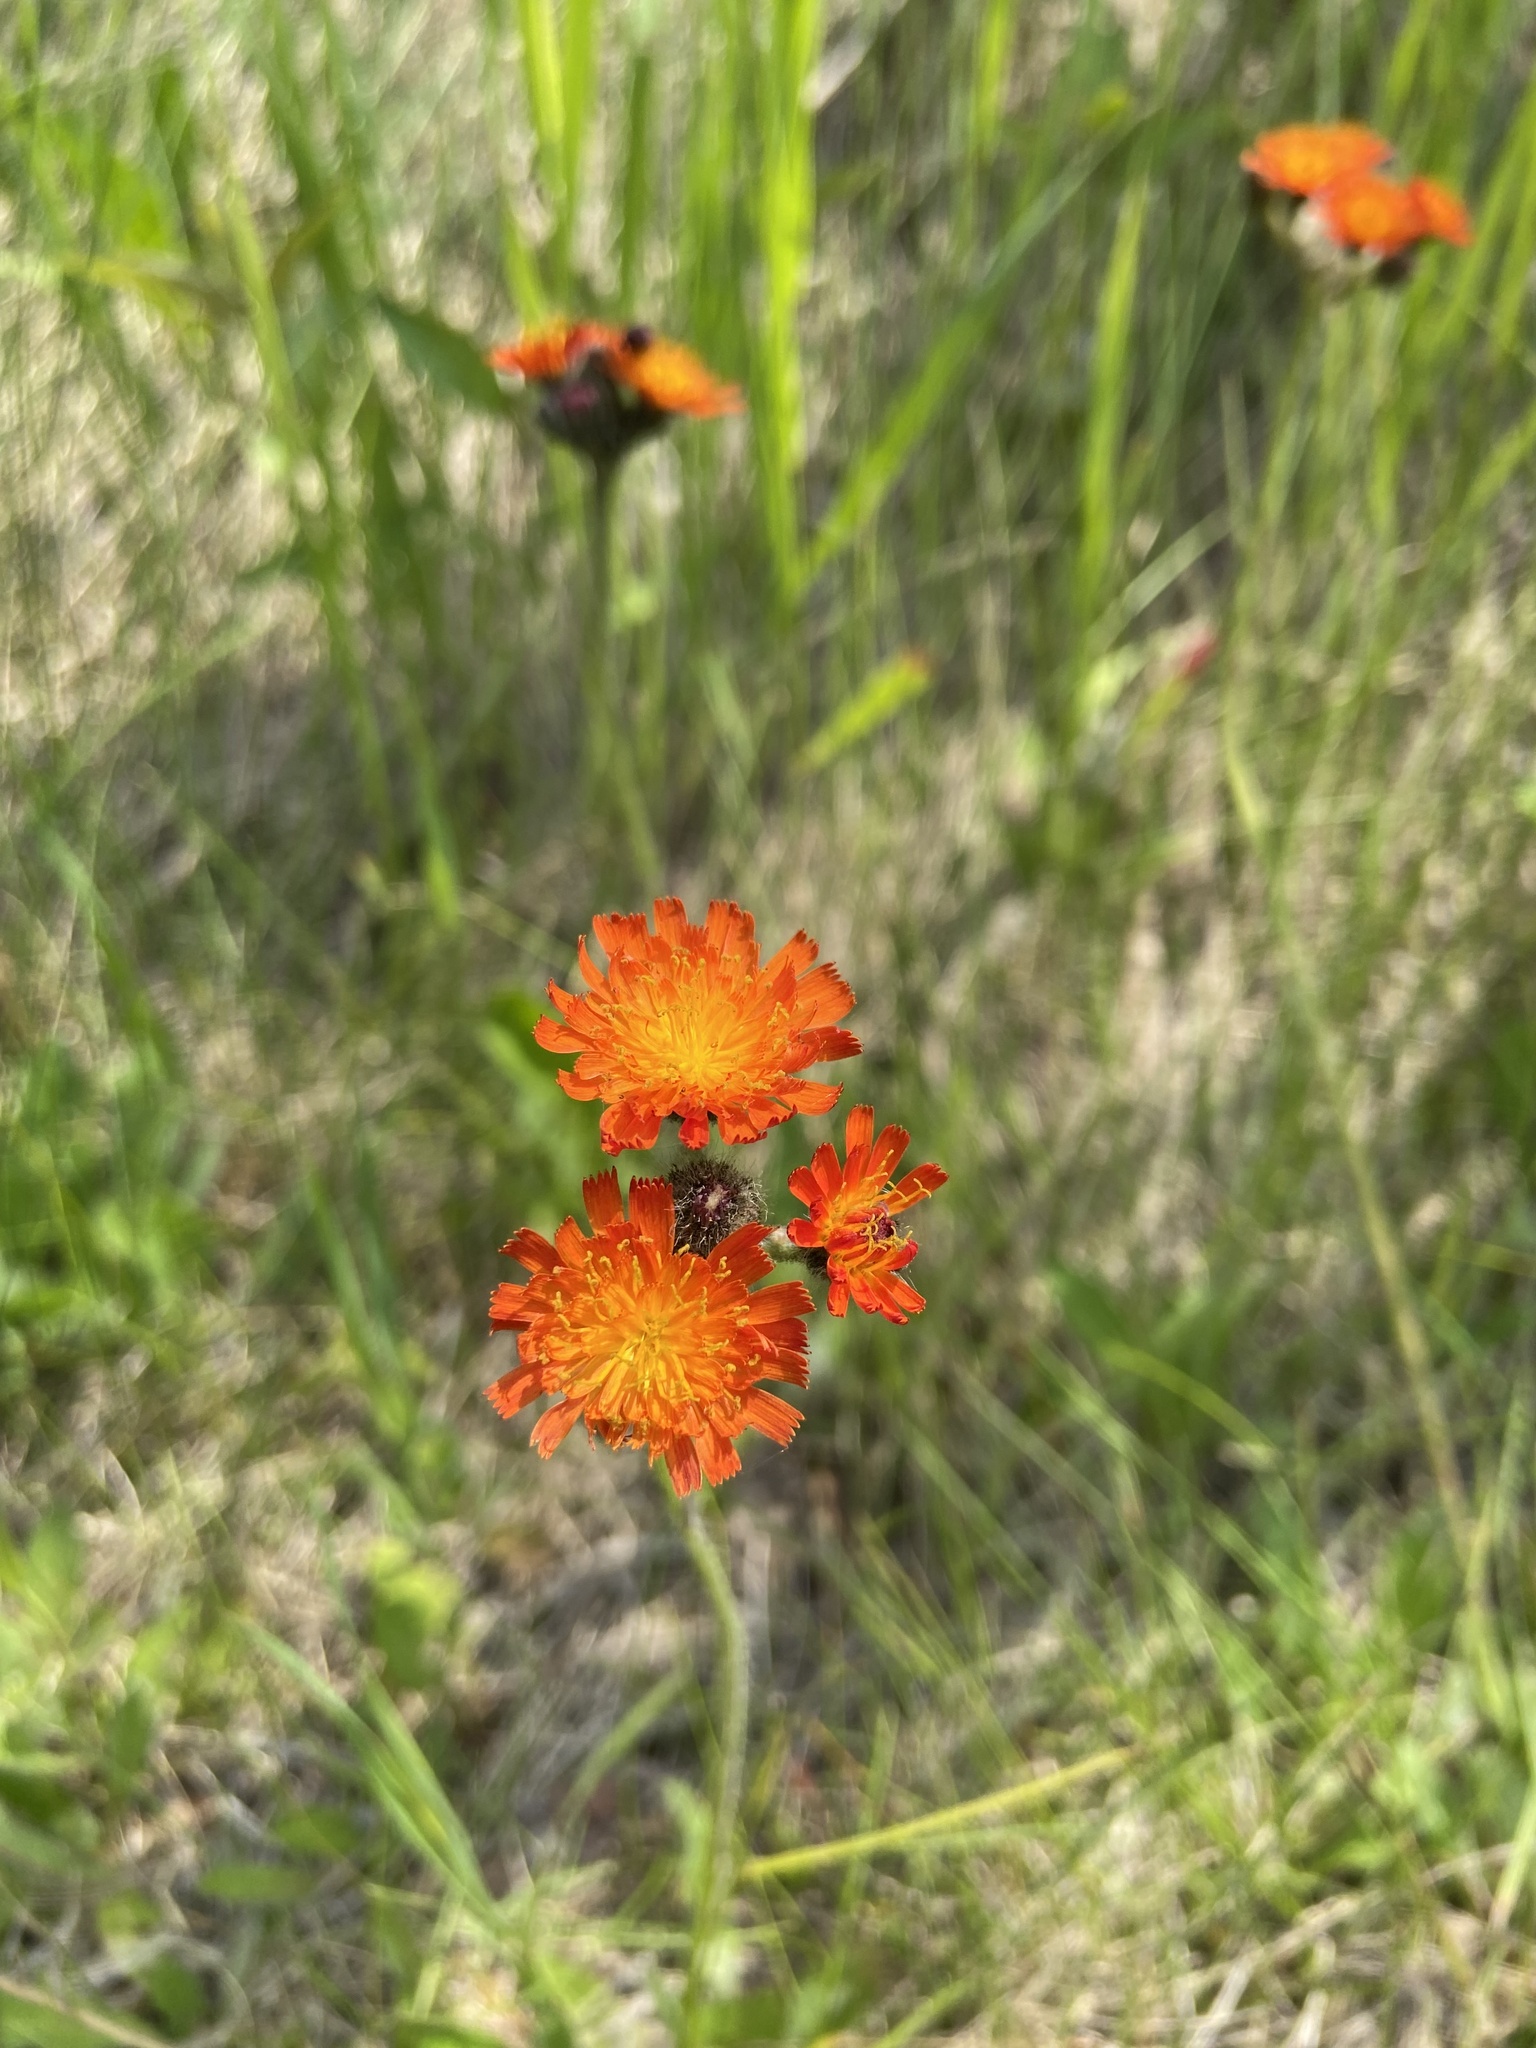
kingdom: Plantae
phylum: Tracheophyta
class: Magnoliopsida
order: Asterales
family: Asteraceae
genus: Pilosella
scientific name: Pilosella aurantiaca
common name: Fox-and-cubs
